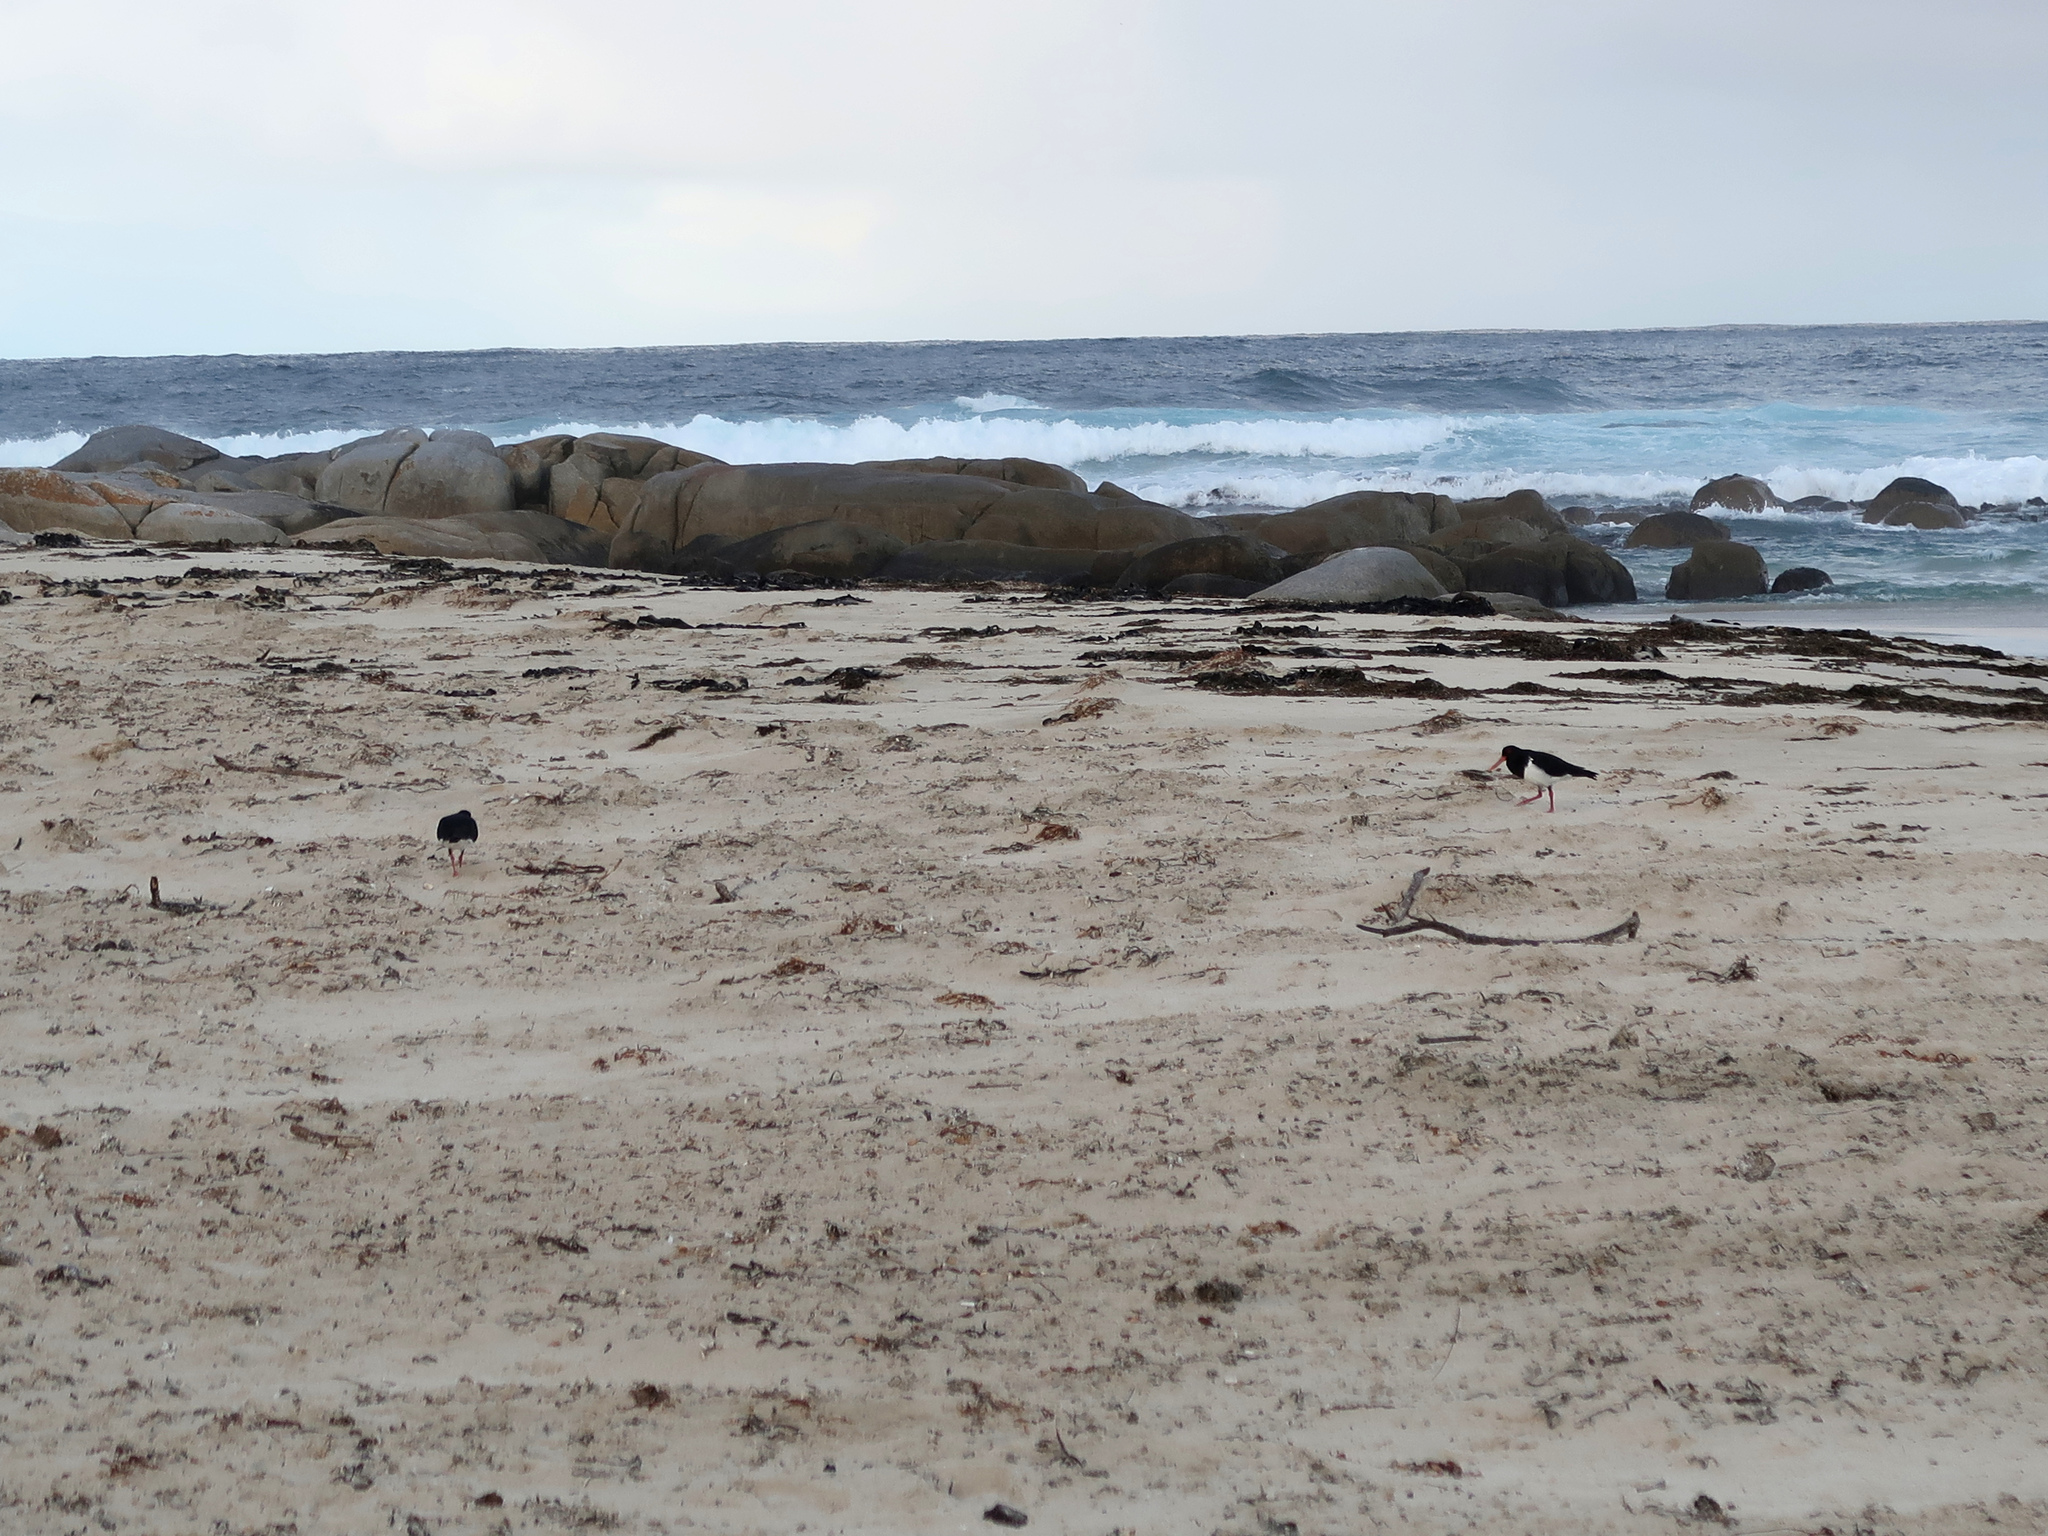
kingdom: Animalia
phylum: Chordata
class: Aves
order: Charadriiformes
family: Haematopodidae
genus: Haematopus
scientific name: Haematopus longirostris
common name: Pied oystercatcher
